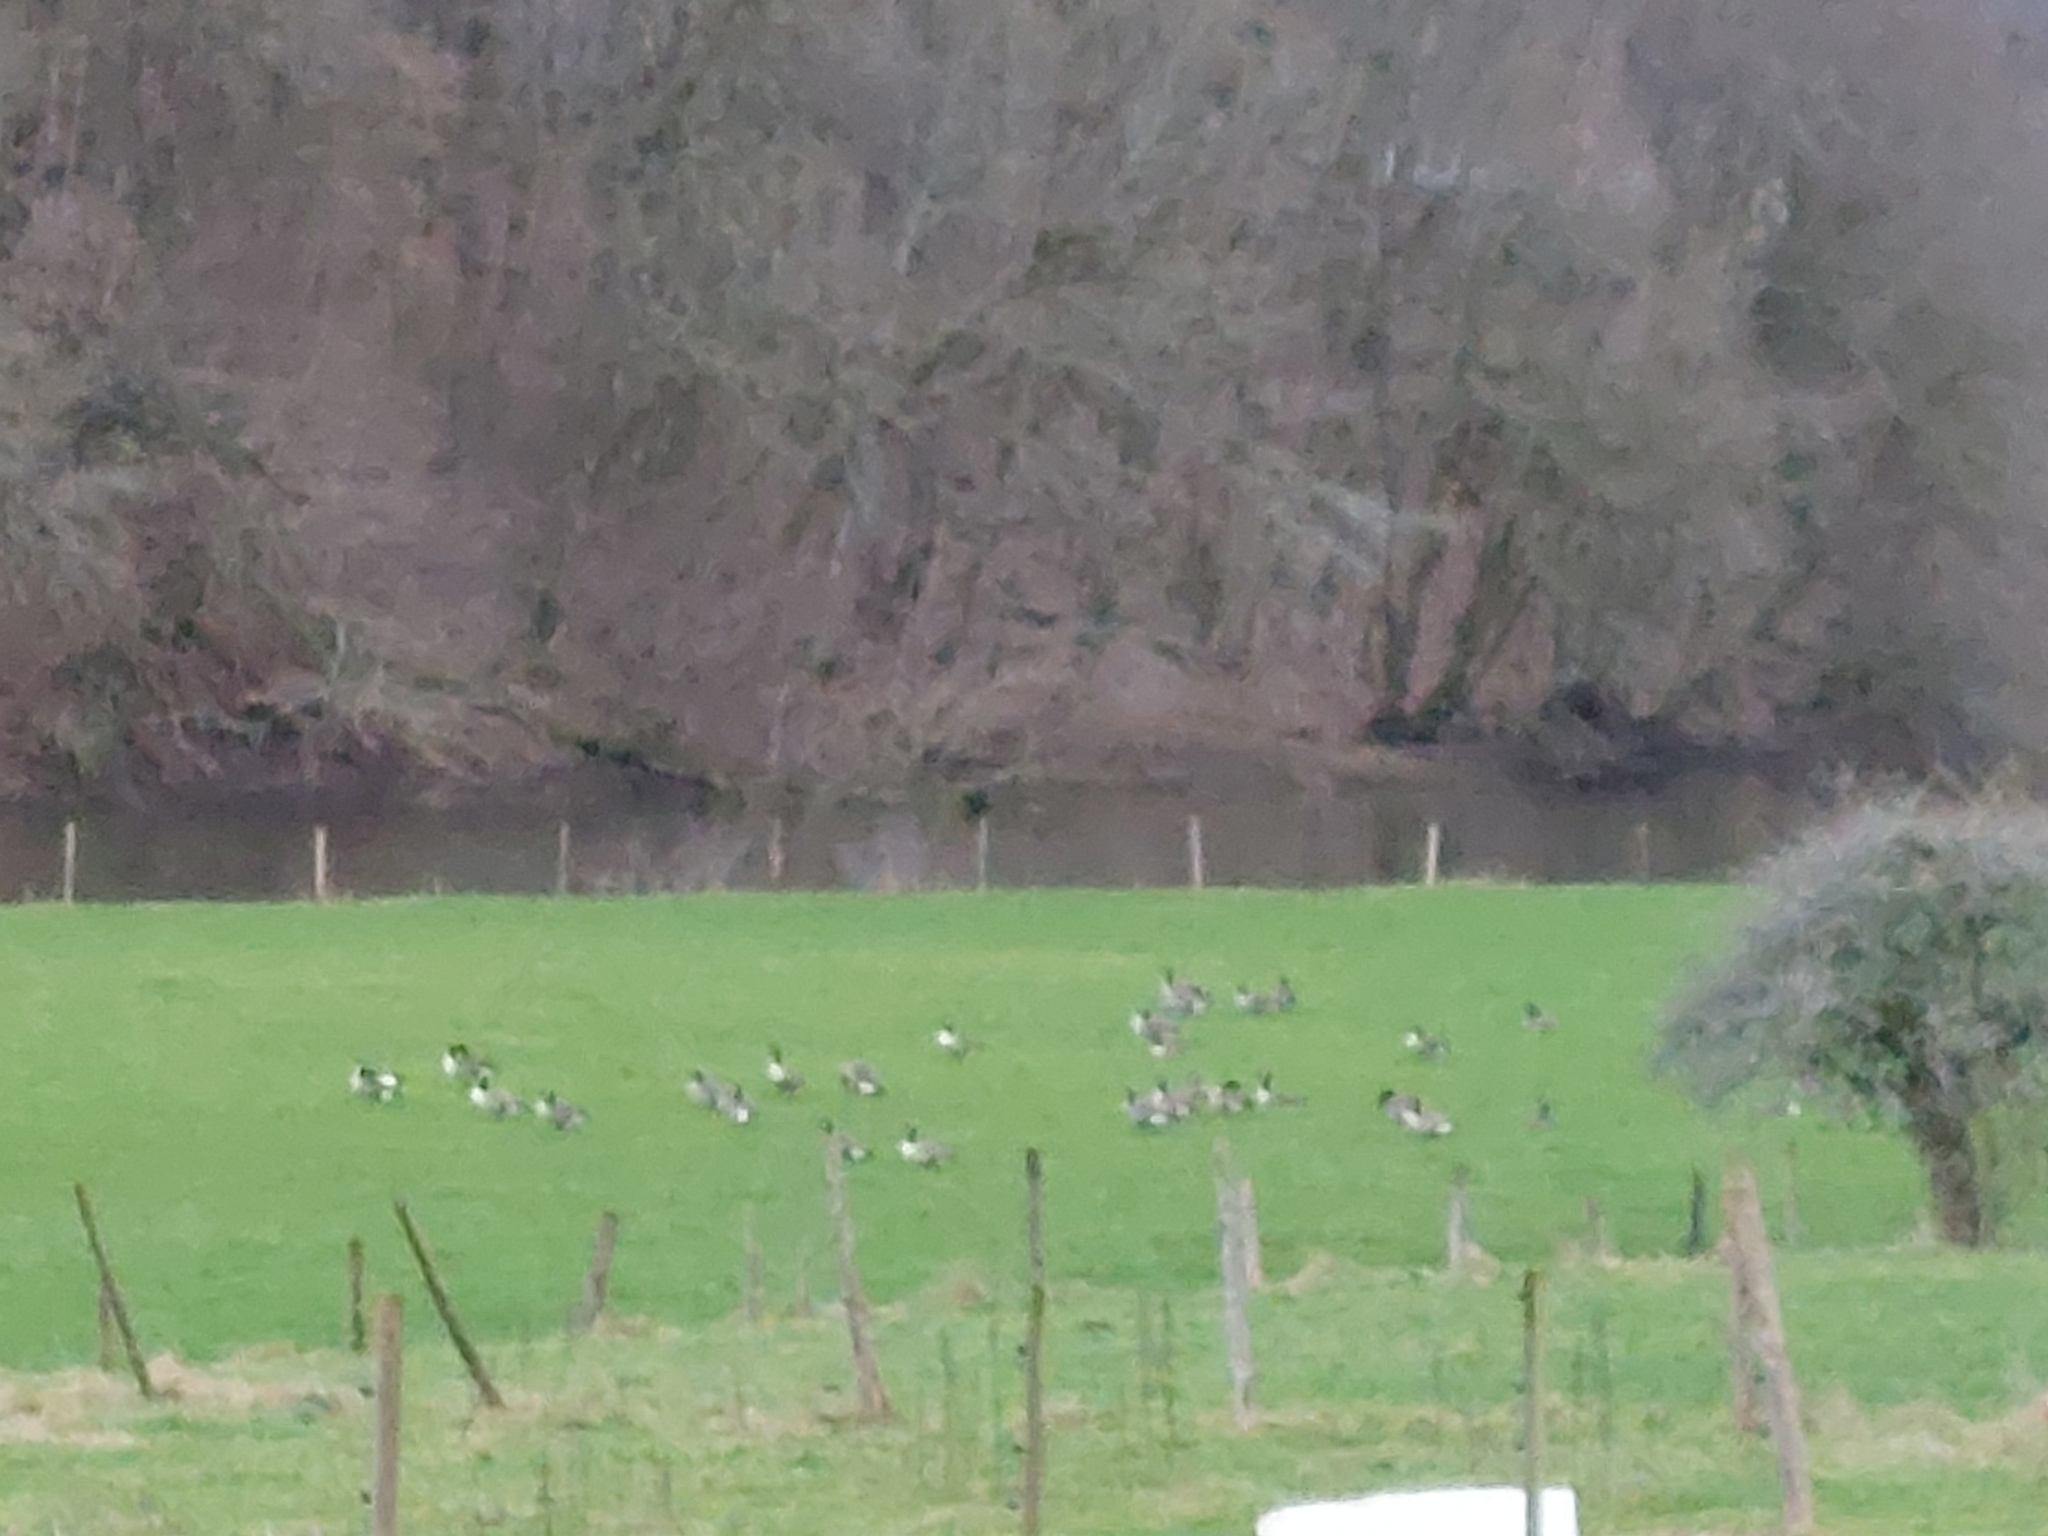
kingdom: Animalia
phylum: Chordata
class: Aves
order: Anseriformes
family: Anatidae
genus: Branta
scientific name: Branta canadensis
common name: Canada goose
